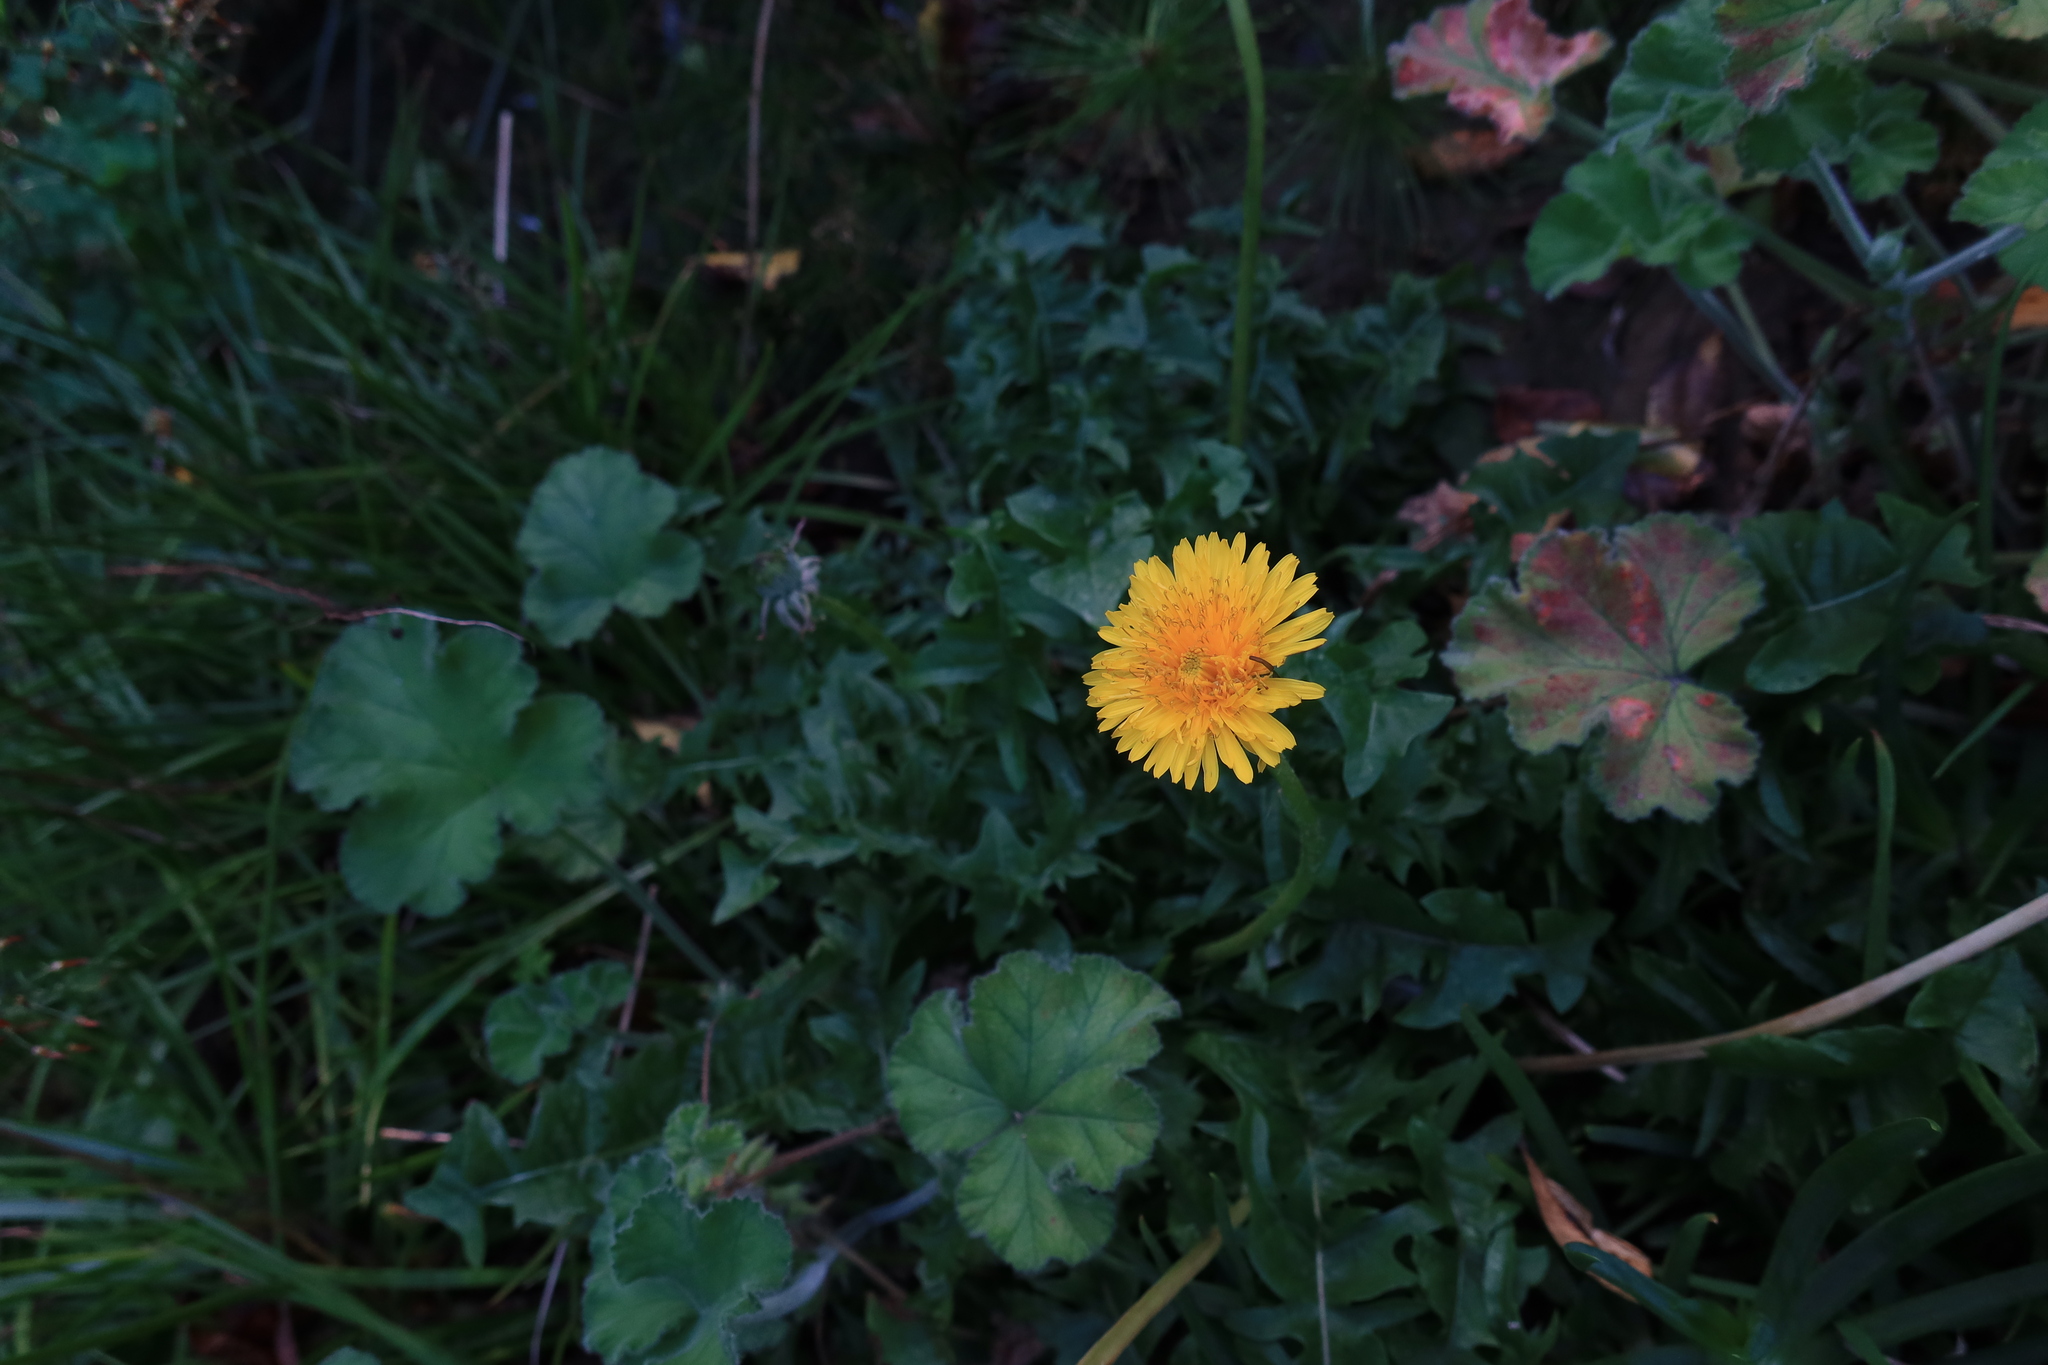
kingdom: Plantae
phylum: Tracheophyta
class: Magnoliopsida
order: Asterales
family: Asteraceae
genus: Taraxacum
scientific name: Taraxacum officinale
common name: Common dandelion
